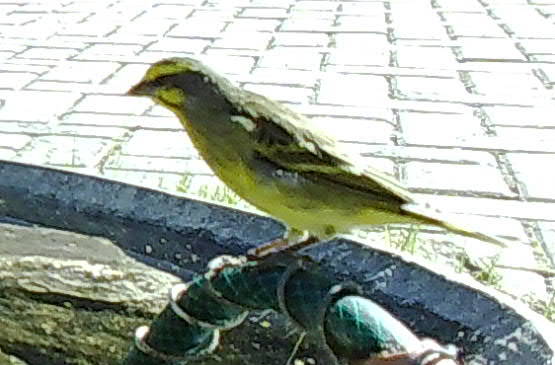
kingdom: Animalia
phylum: Chordata
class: Aves
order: Passeriformes
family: Fringillidae
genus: Crithagra
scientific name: Crithagra mozambica
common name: Yellow-fronted canary
